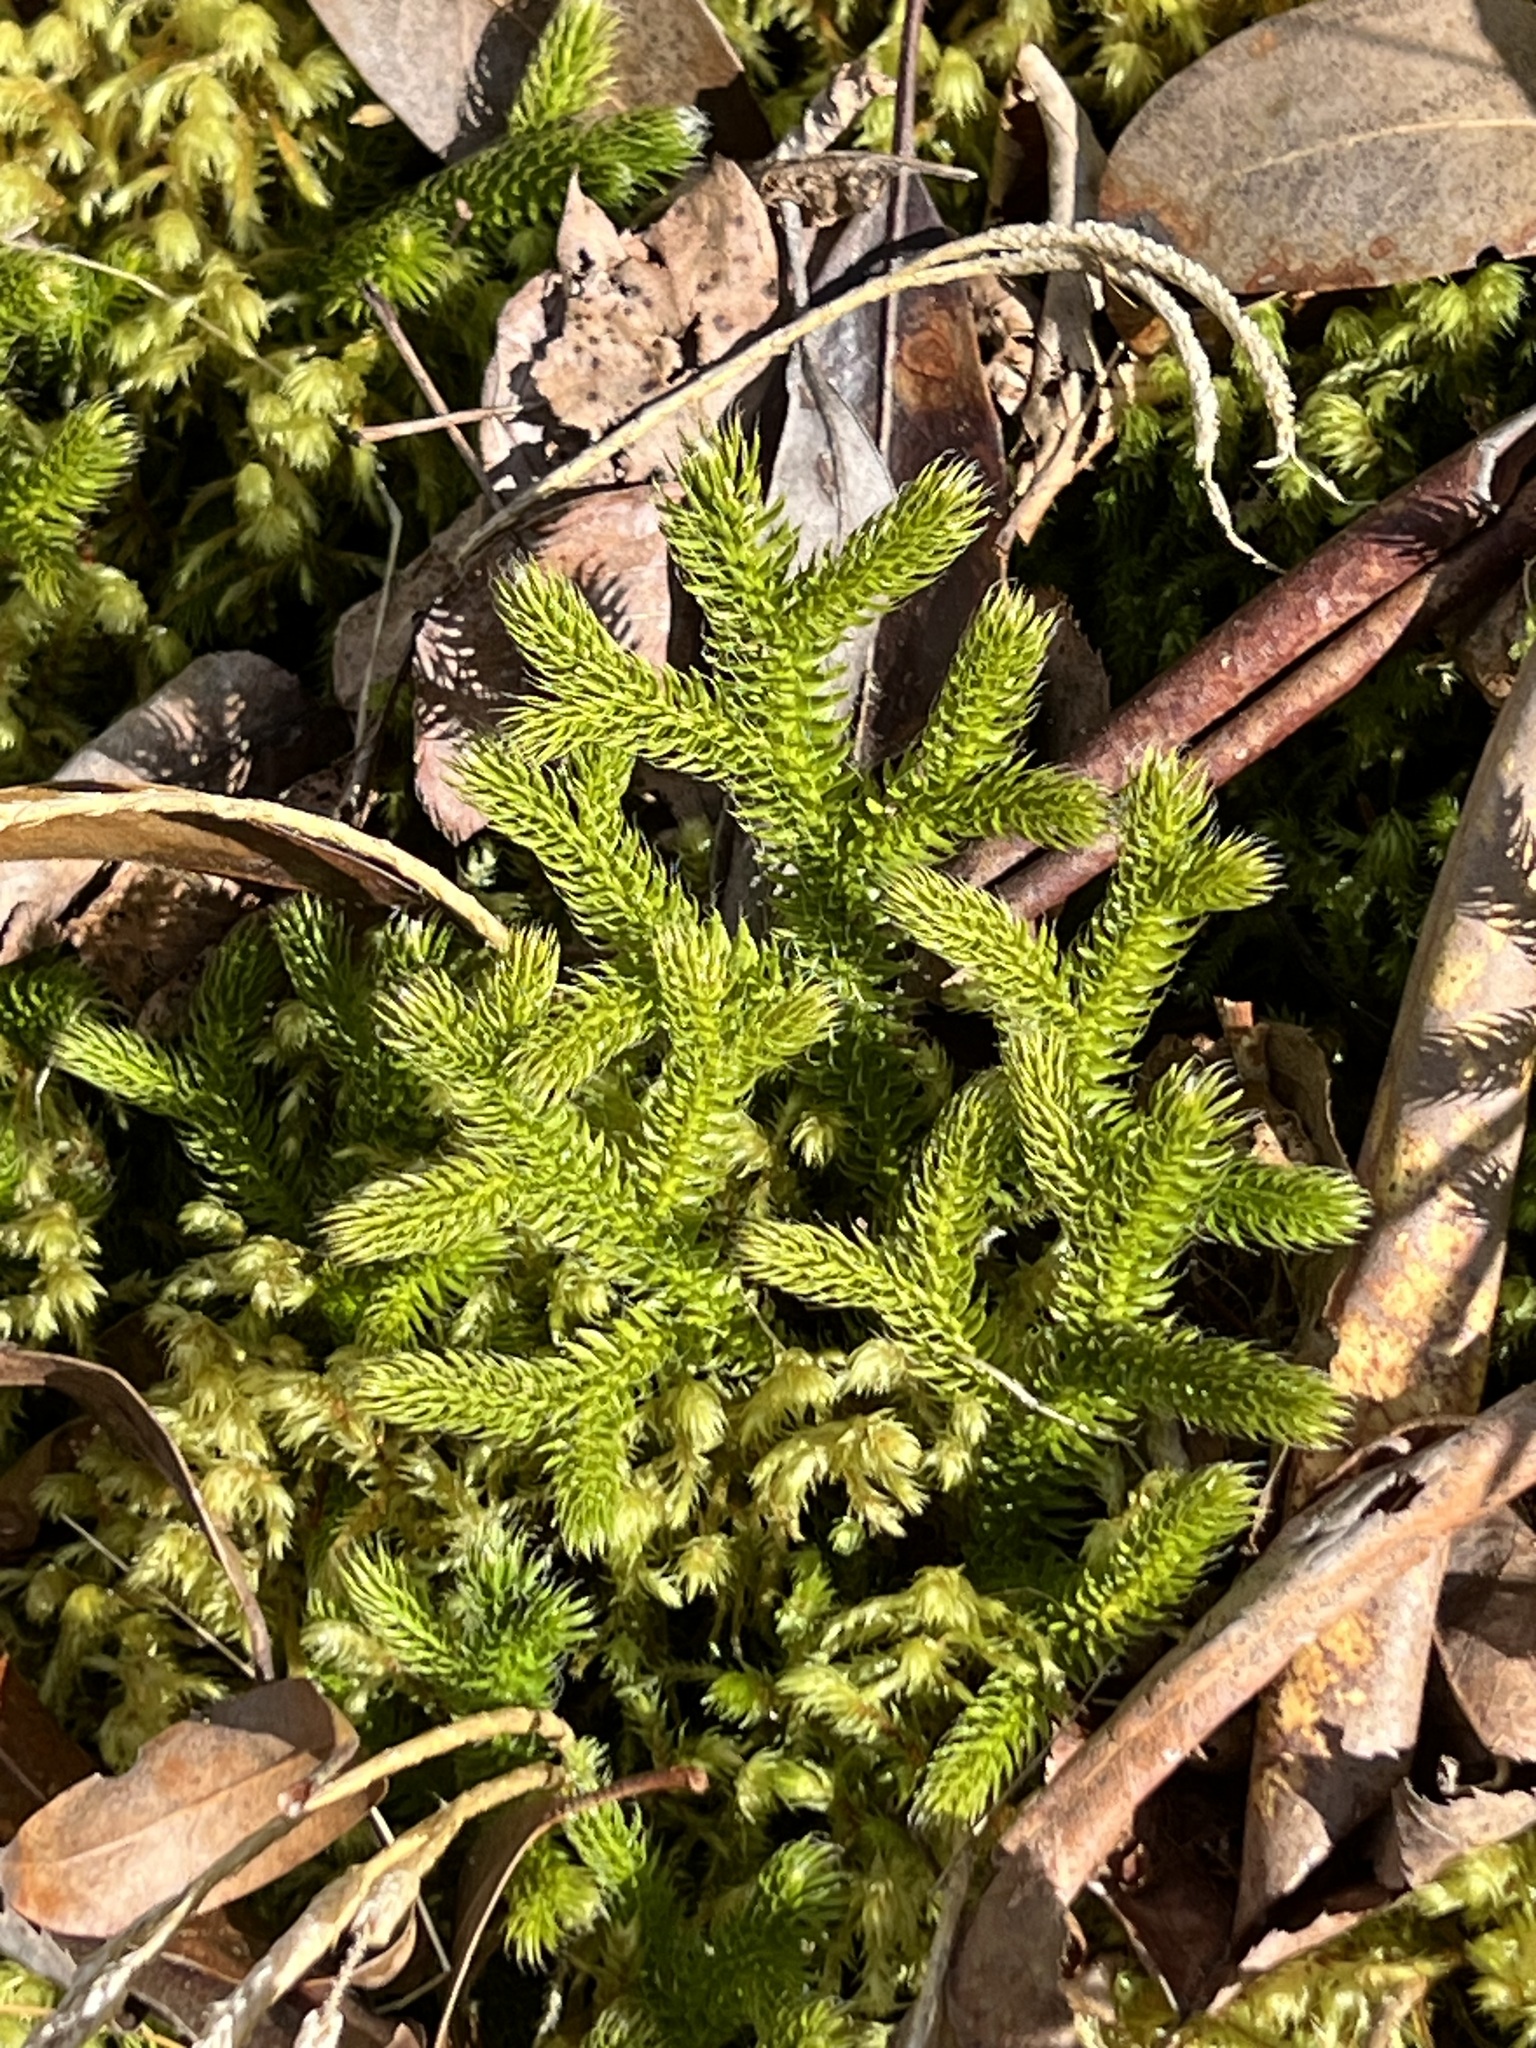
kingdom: Plantae
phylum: Tracheophyta
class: Lycopodiopsida
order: Lycopodiales
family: Lycopodiaceae
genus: Lycopodium
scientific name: Lycopodium clavatum
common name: Stag's-horn clubmoss
